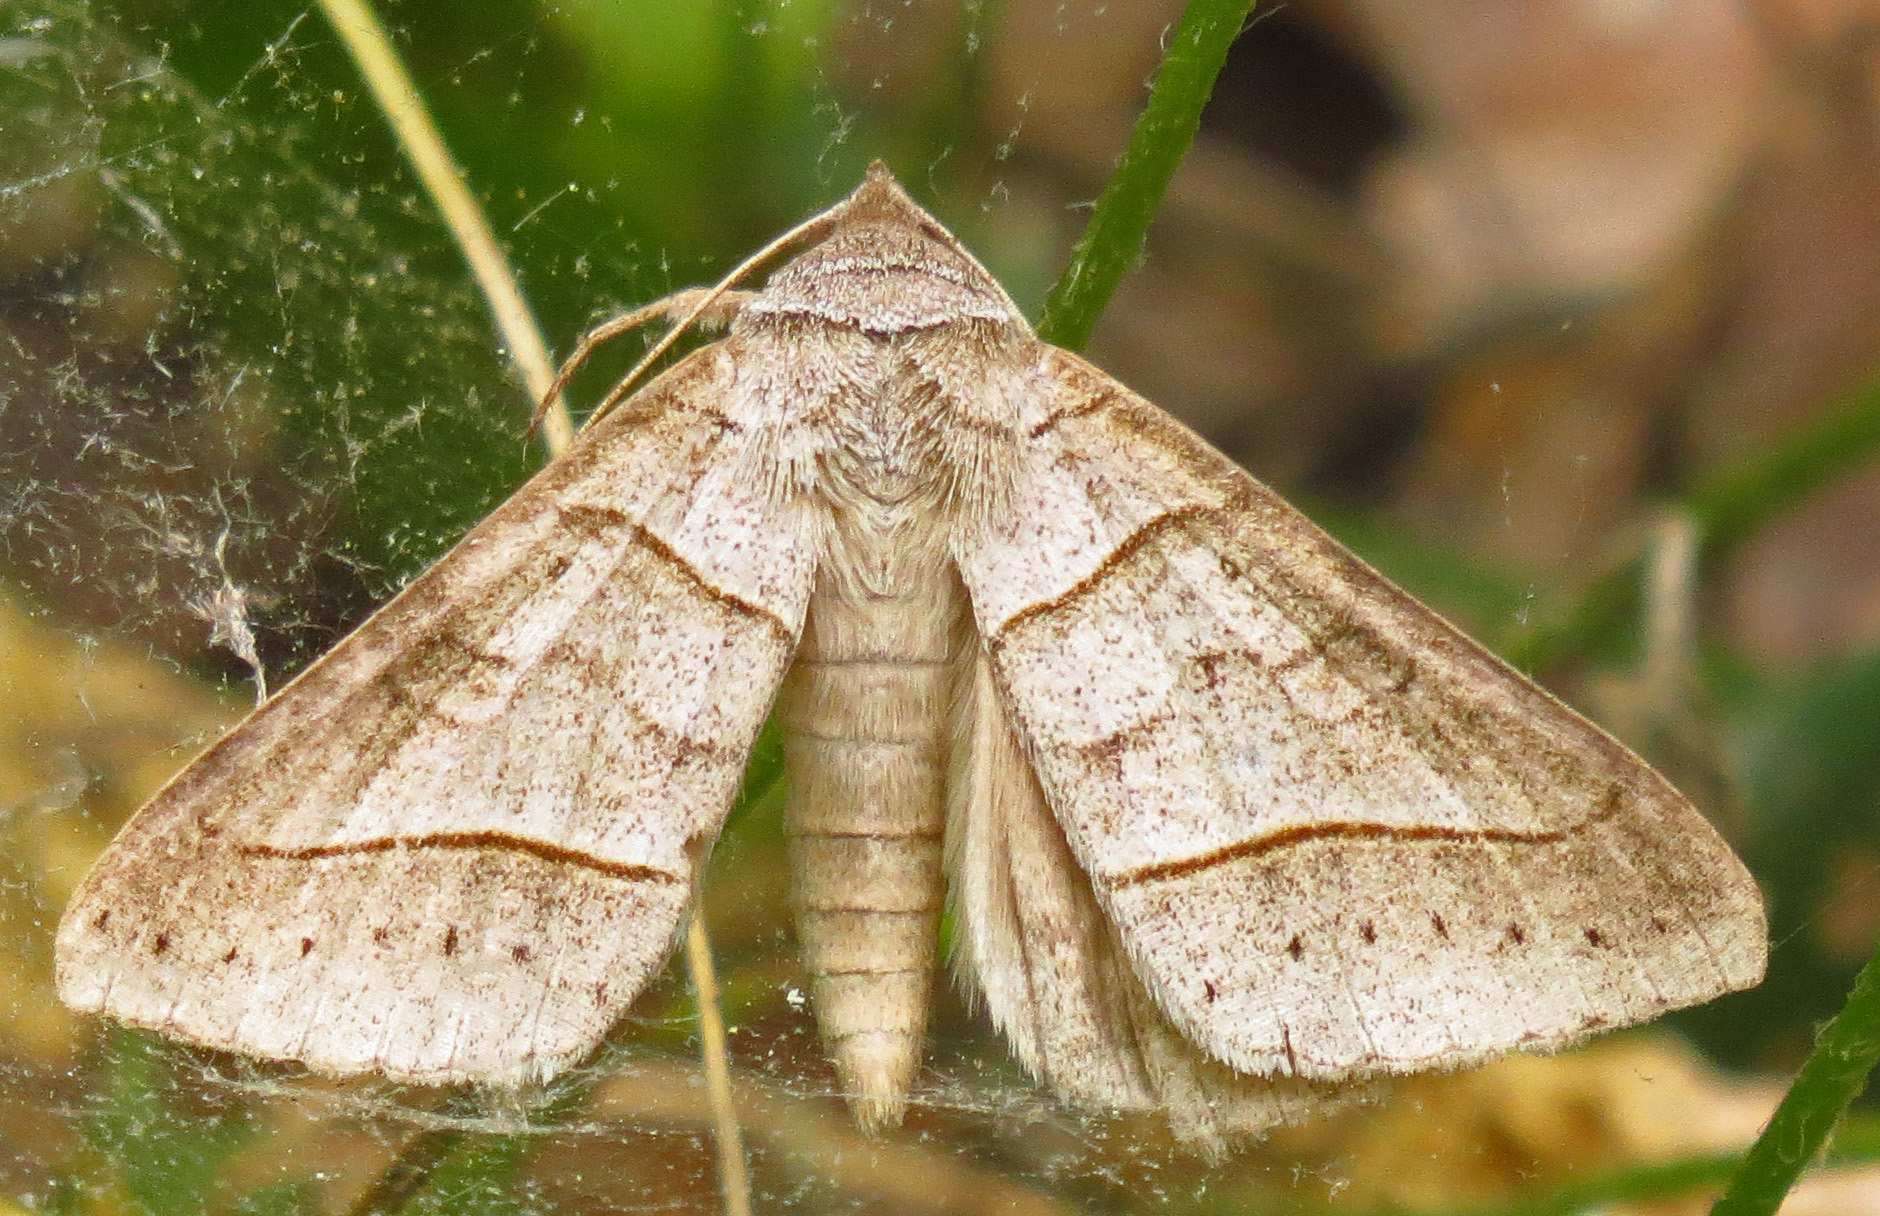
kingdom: Animalia
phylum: Arthropoda
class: Insecta
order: Lepidoptera
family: Erebidae
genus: Mocis
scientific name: Mocis texana
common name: Texas mocis moth
